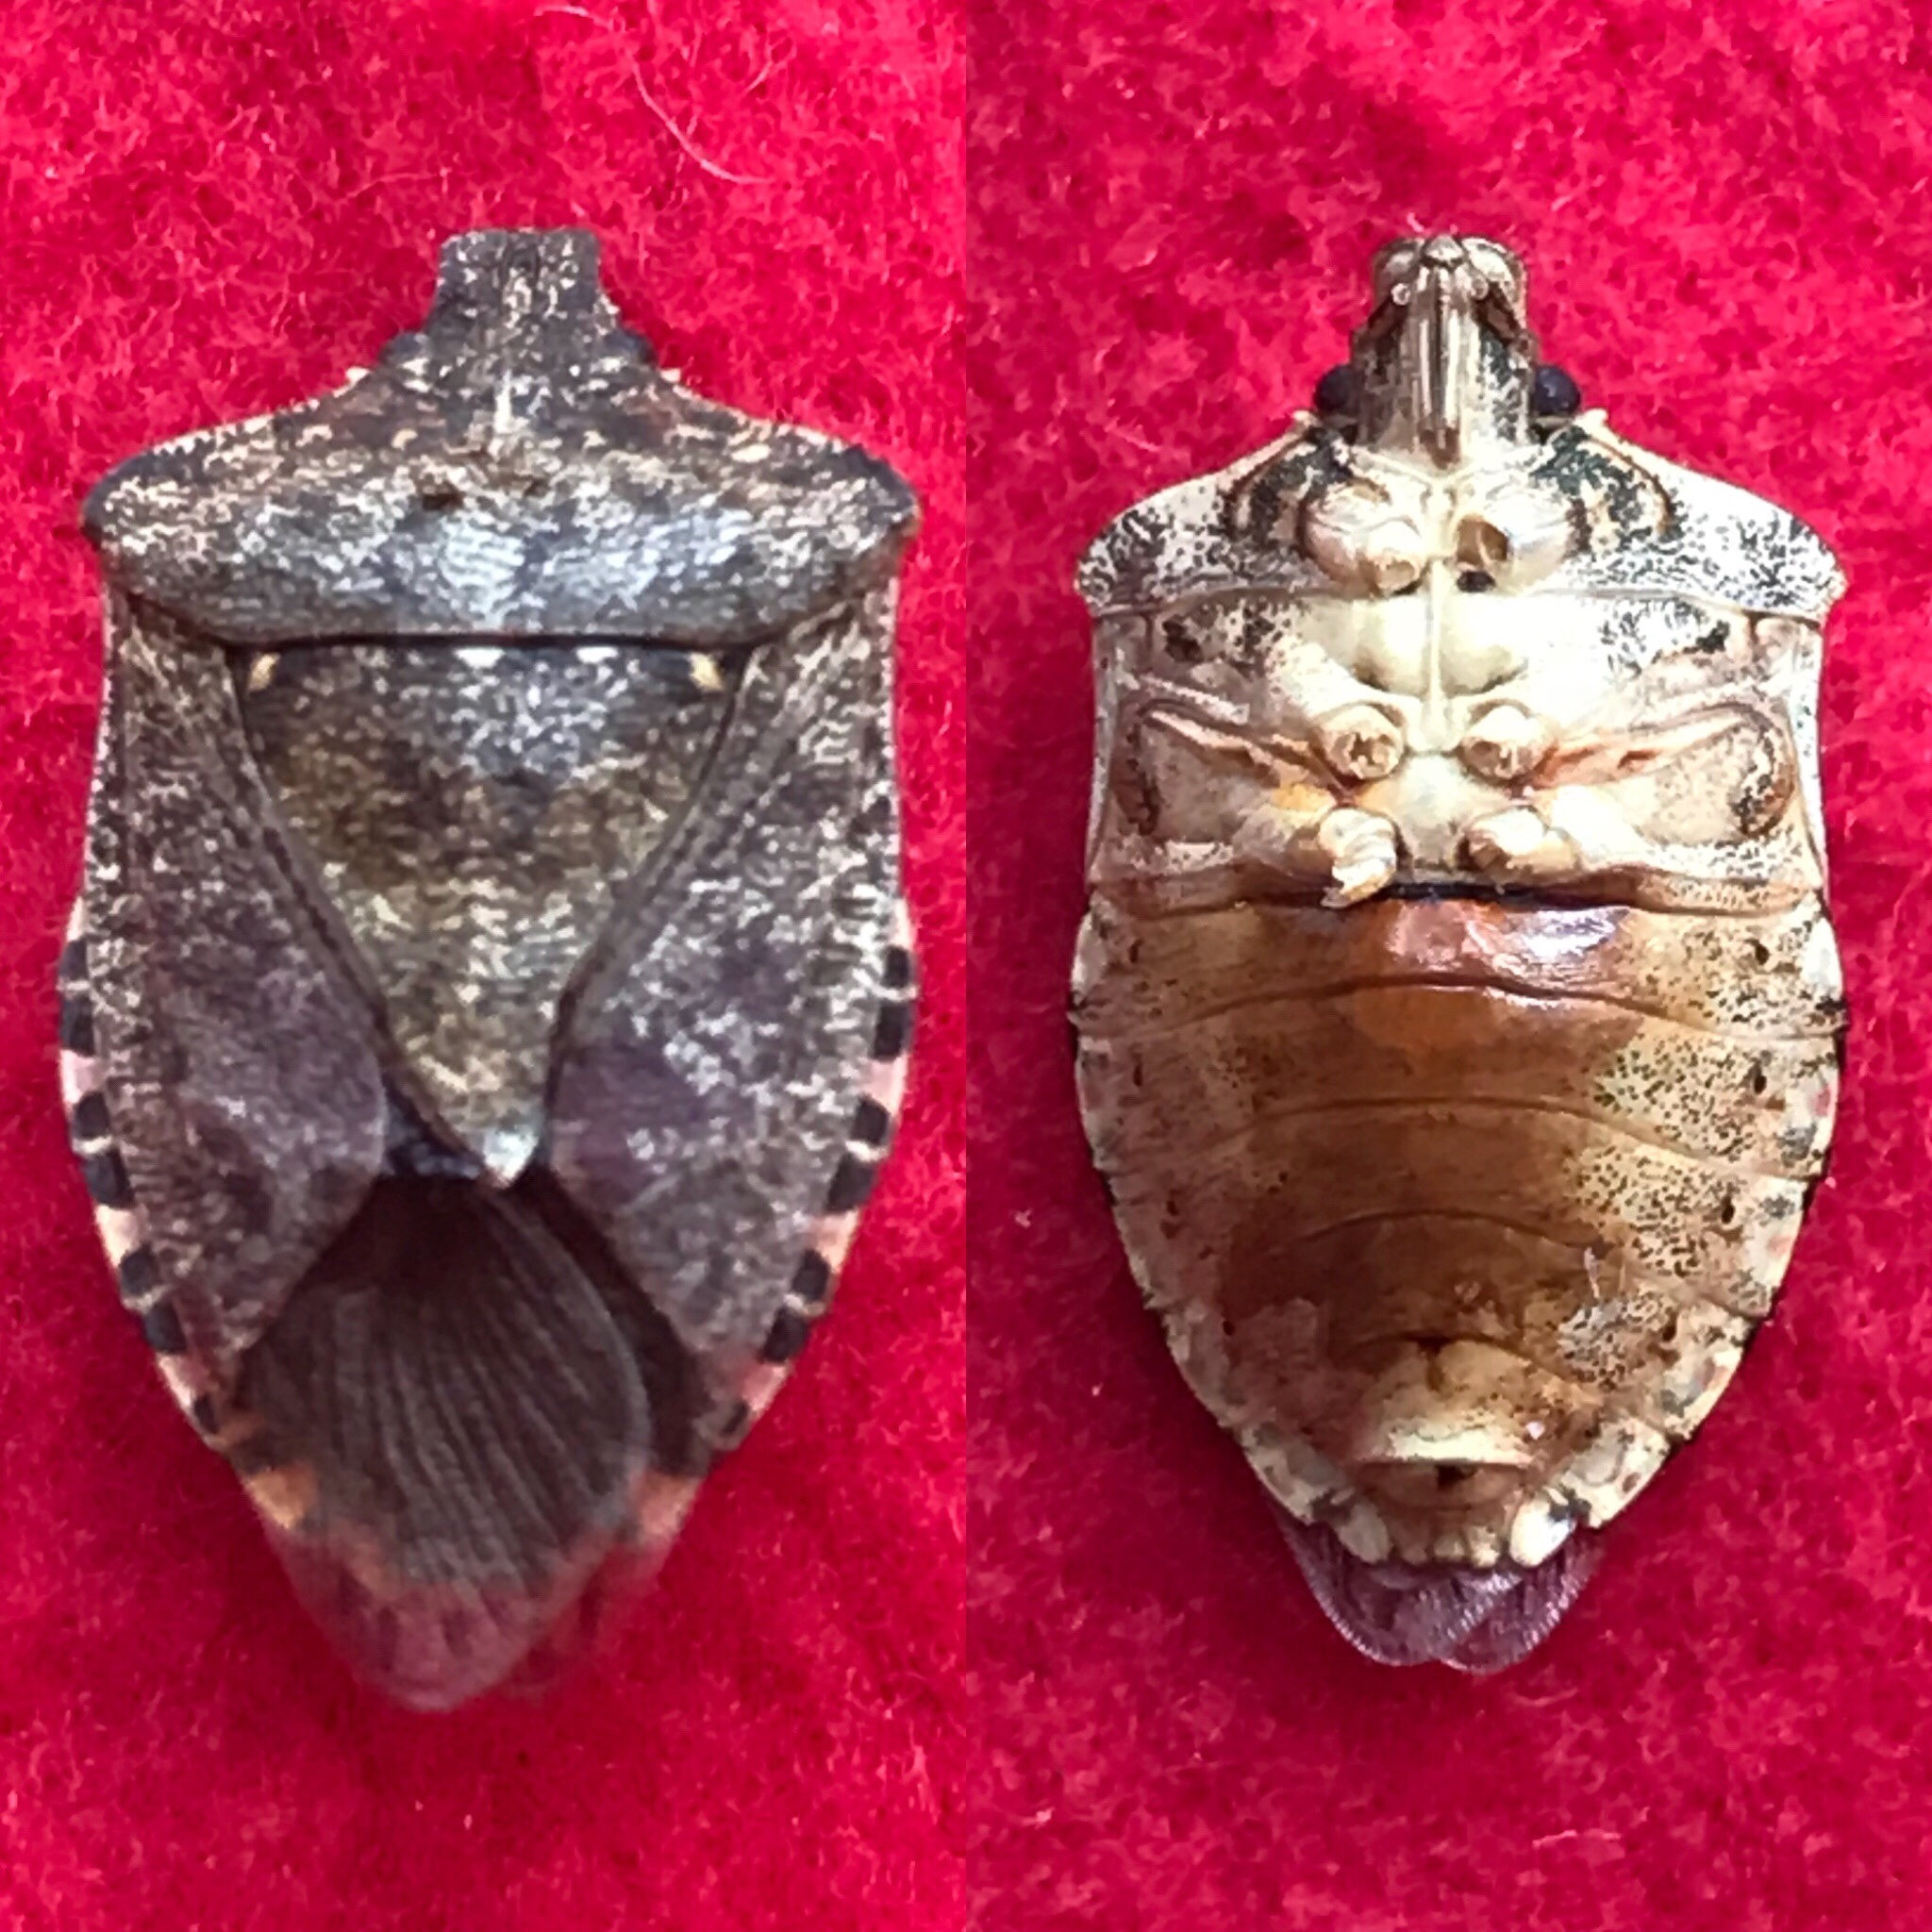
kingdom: Animalia
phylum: Arthropoda
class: Insecta
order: Hemiptera
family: Pentatomidae
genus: Halyomorpha
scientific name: Halyomorpha halys
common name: Brown marmorated stink bug
